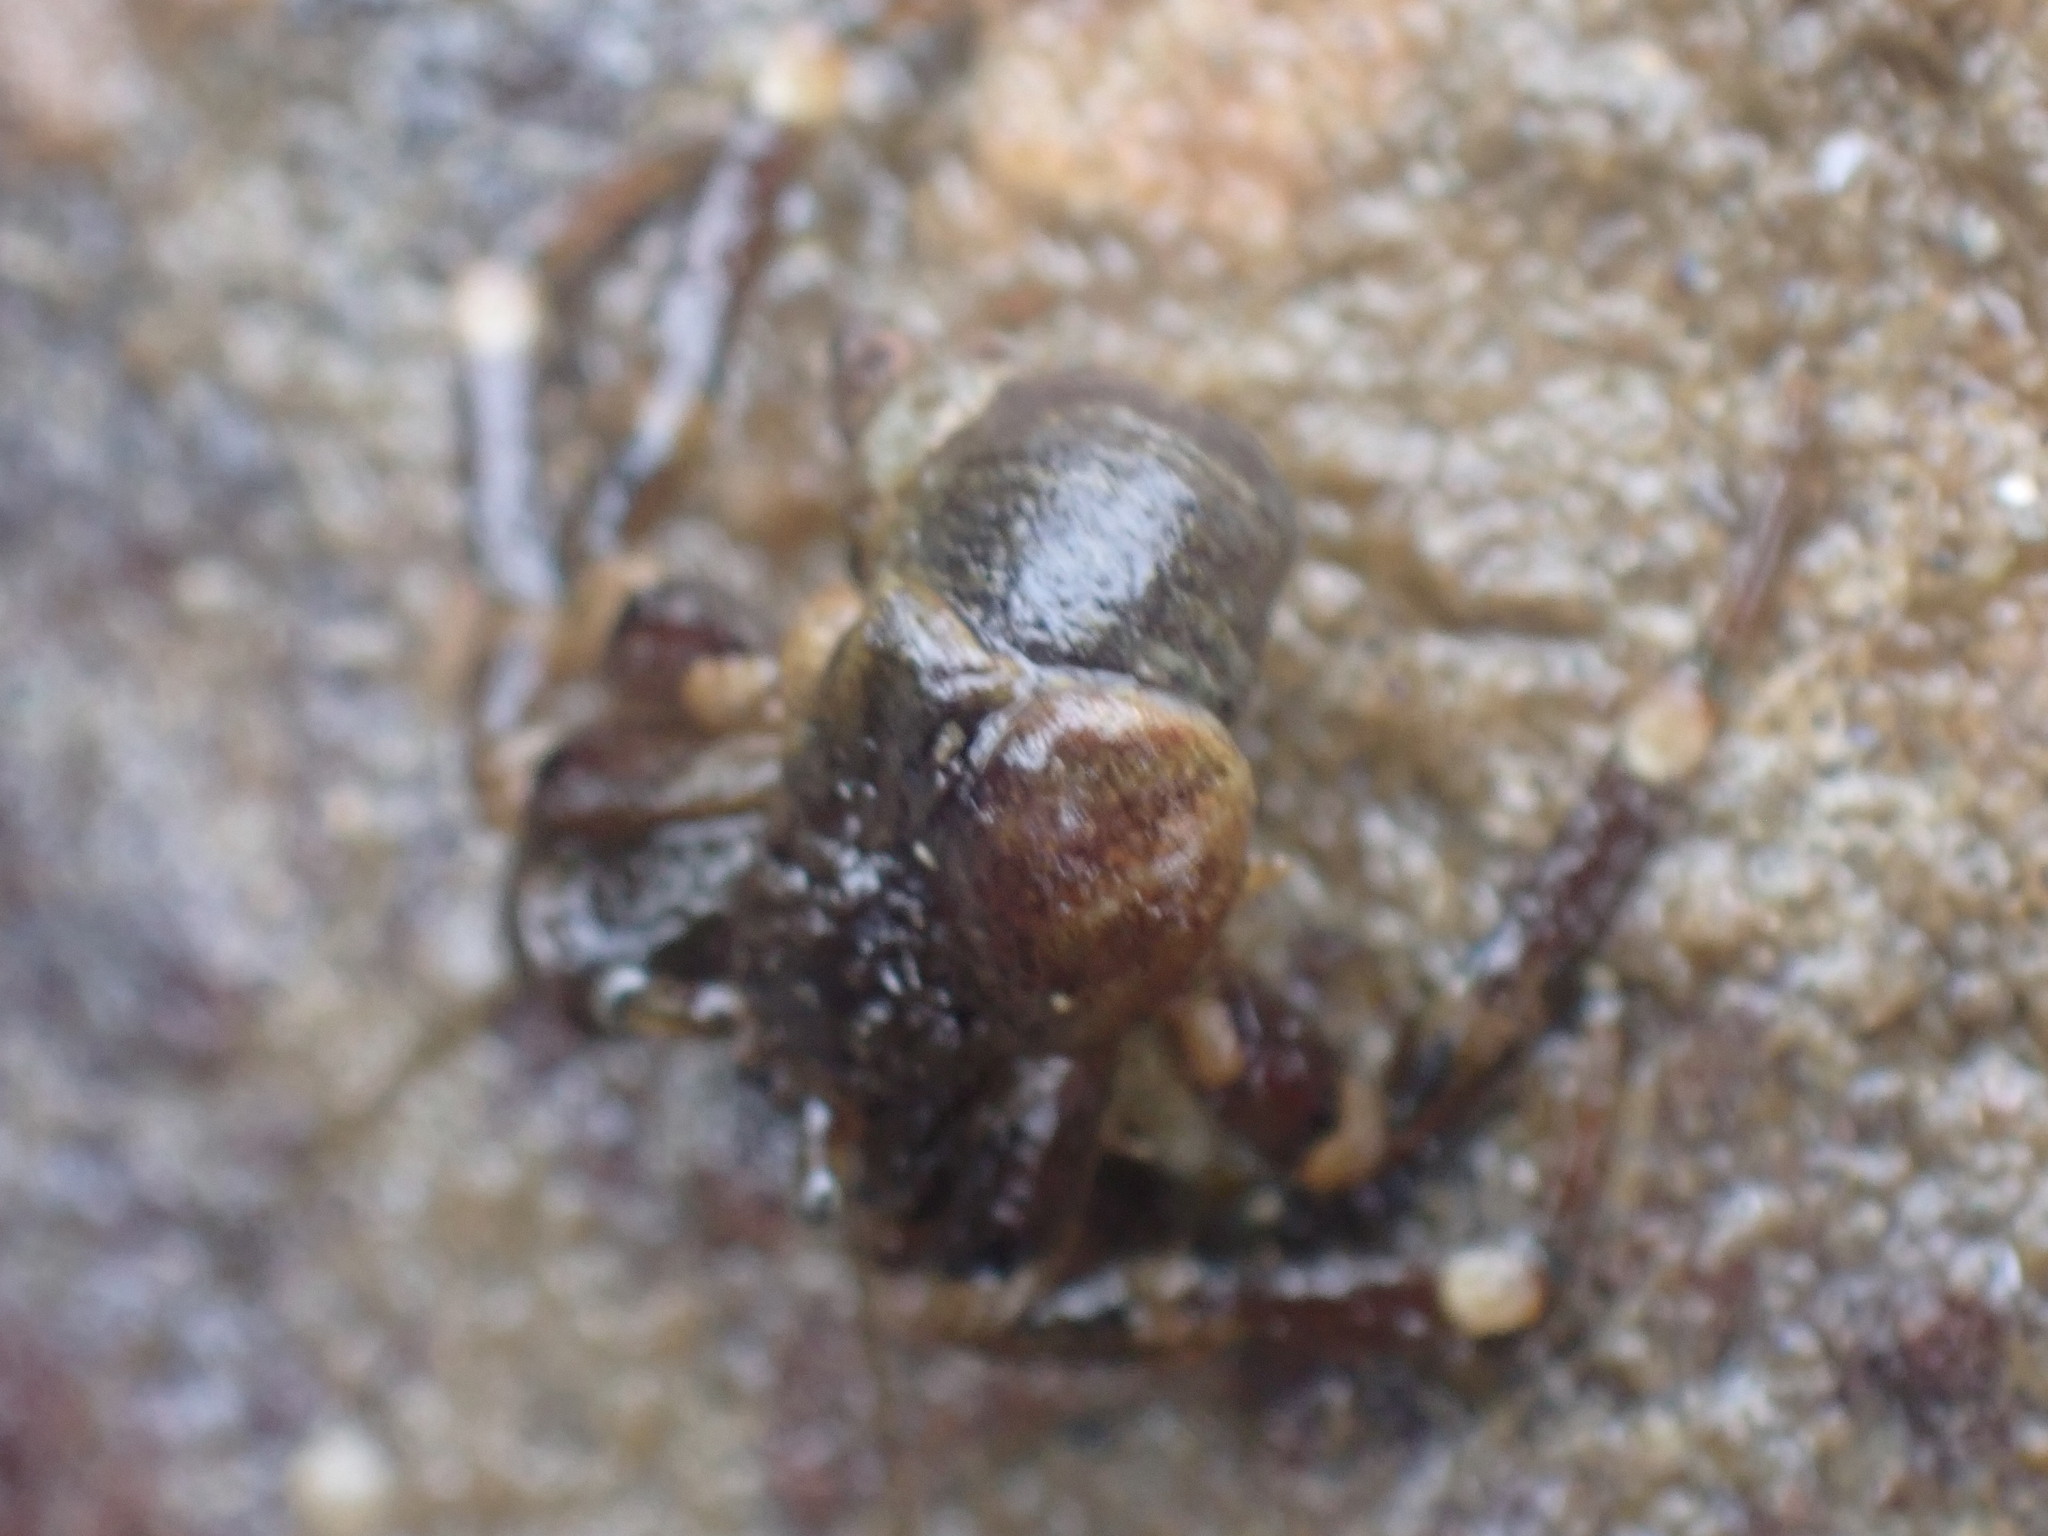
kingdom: Animalia
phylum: Arthropoda
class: Malacostraca
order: Decapoda
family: Paguridae
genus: Pagurus
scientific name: Pagurus hirsutiusculus
